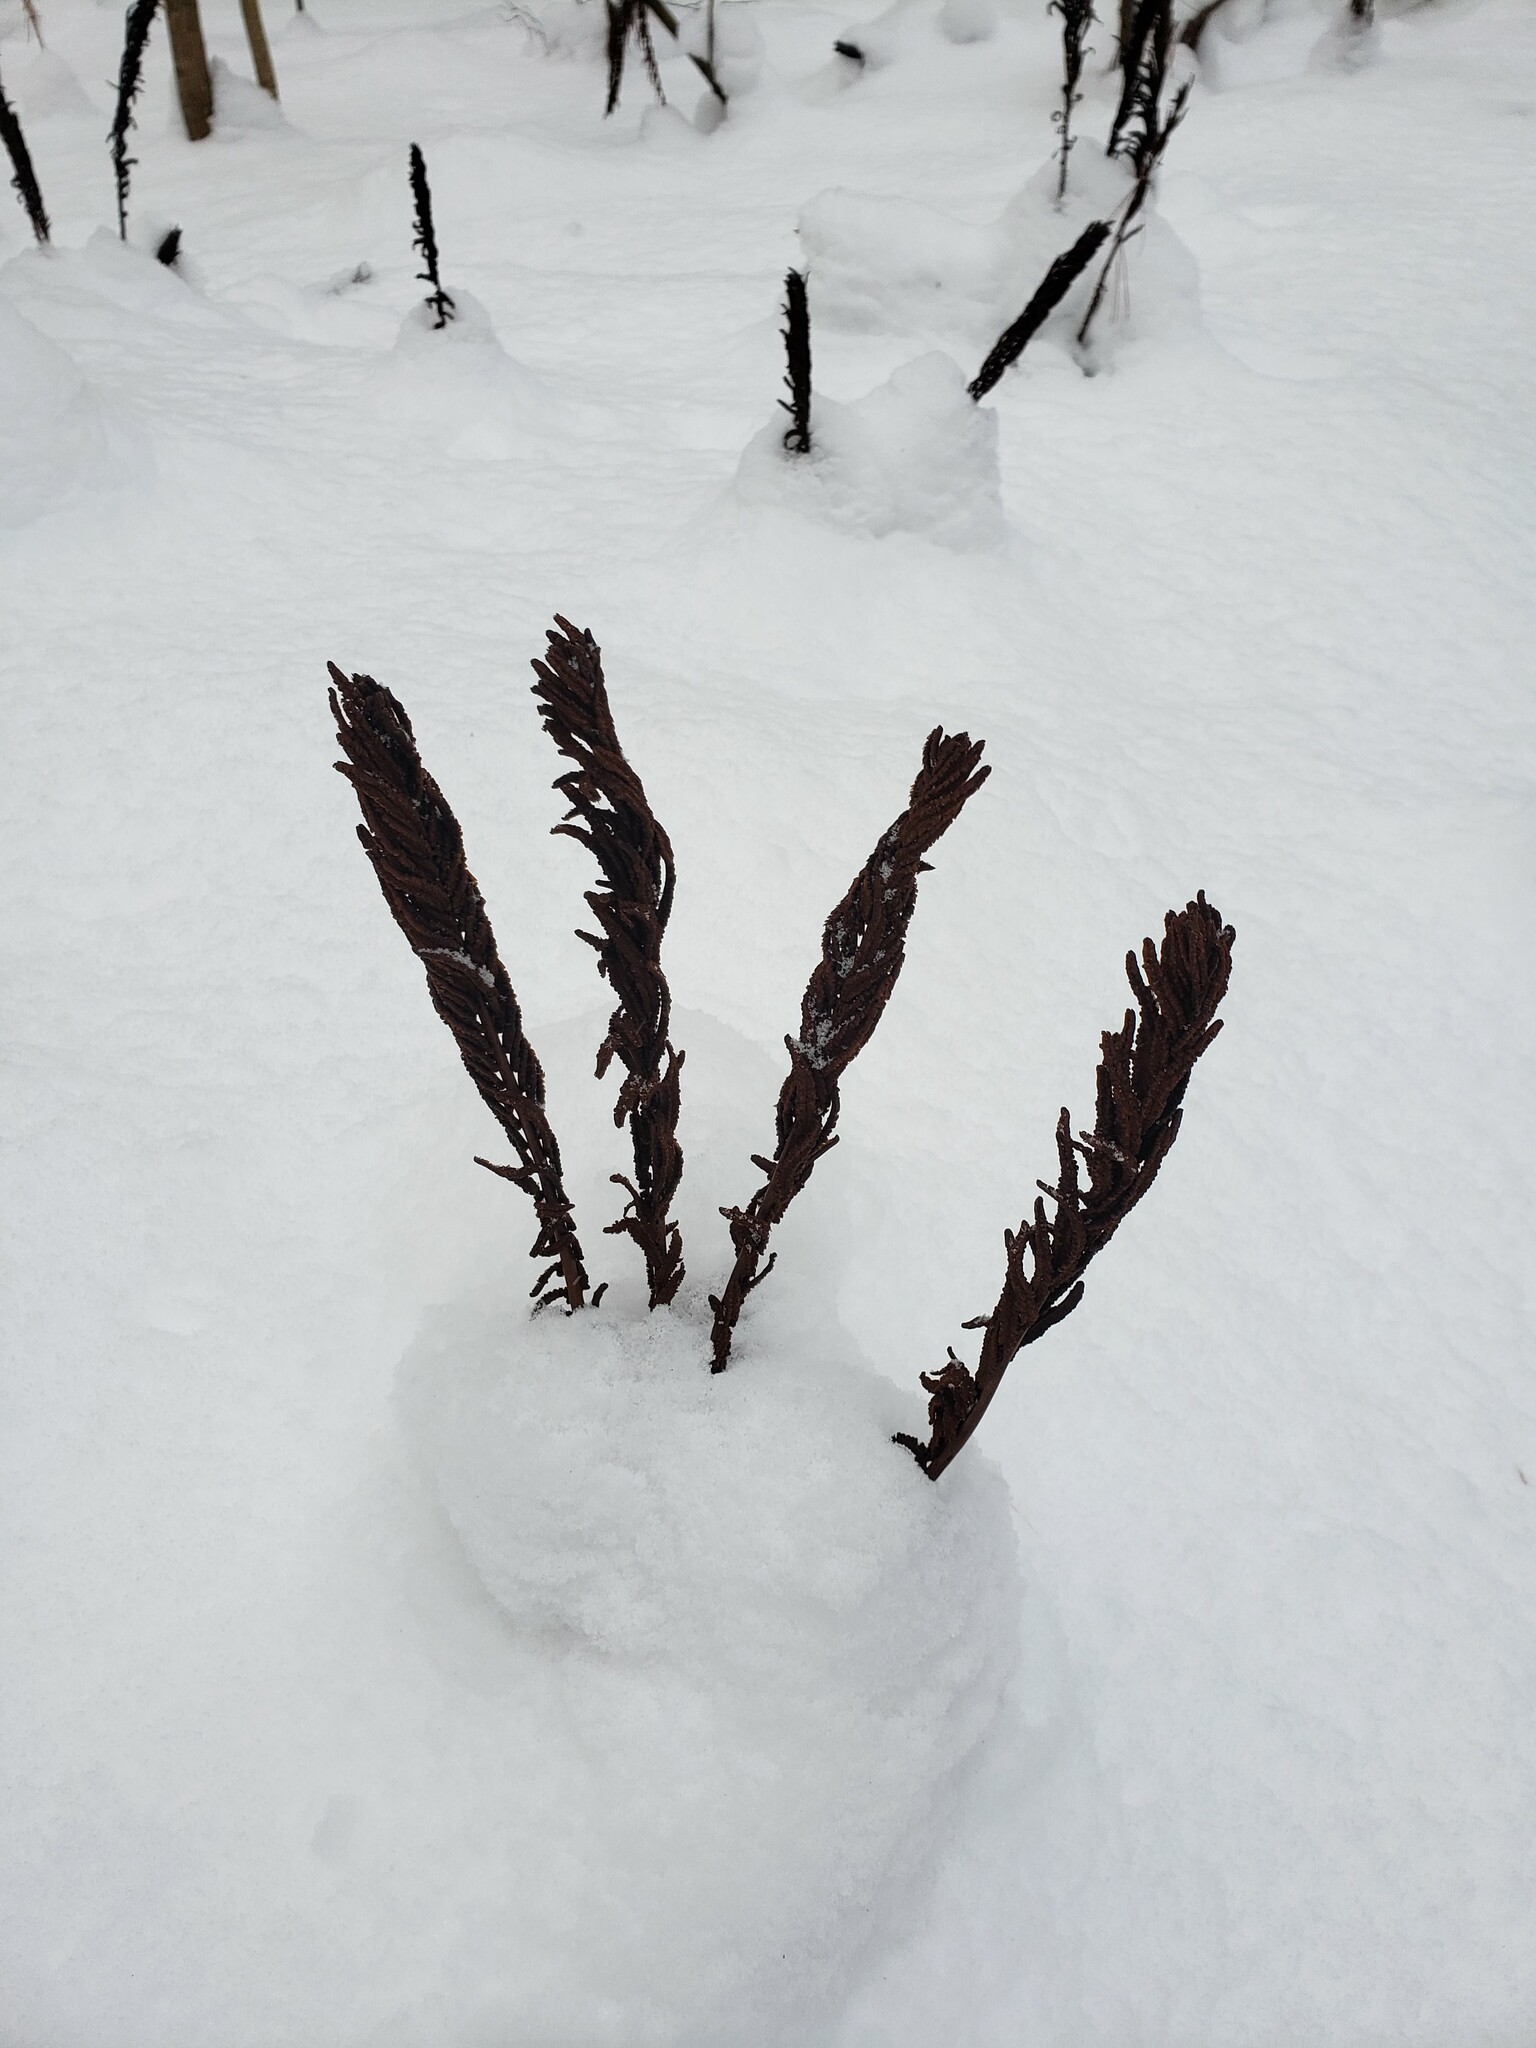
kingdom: Plantae
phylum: Tracheophyta
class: Polypodiopsida
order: Polypodiales
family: Onocleaceae
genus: Matteuccia
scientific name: Matteuccia struthiopteris
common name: Ostrich fern
